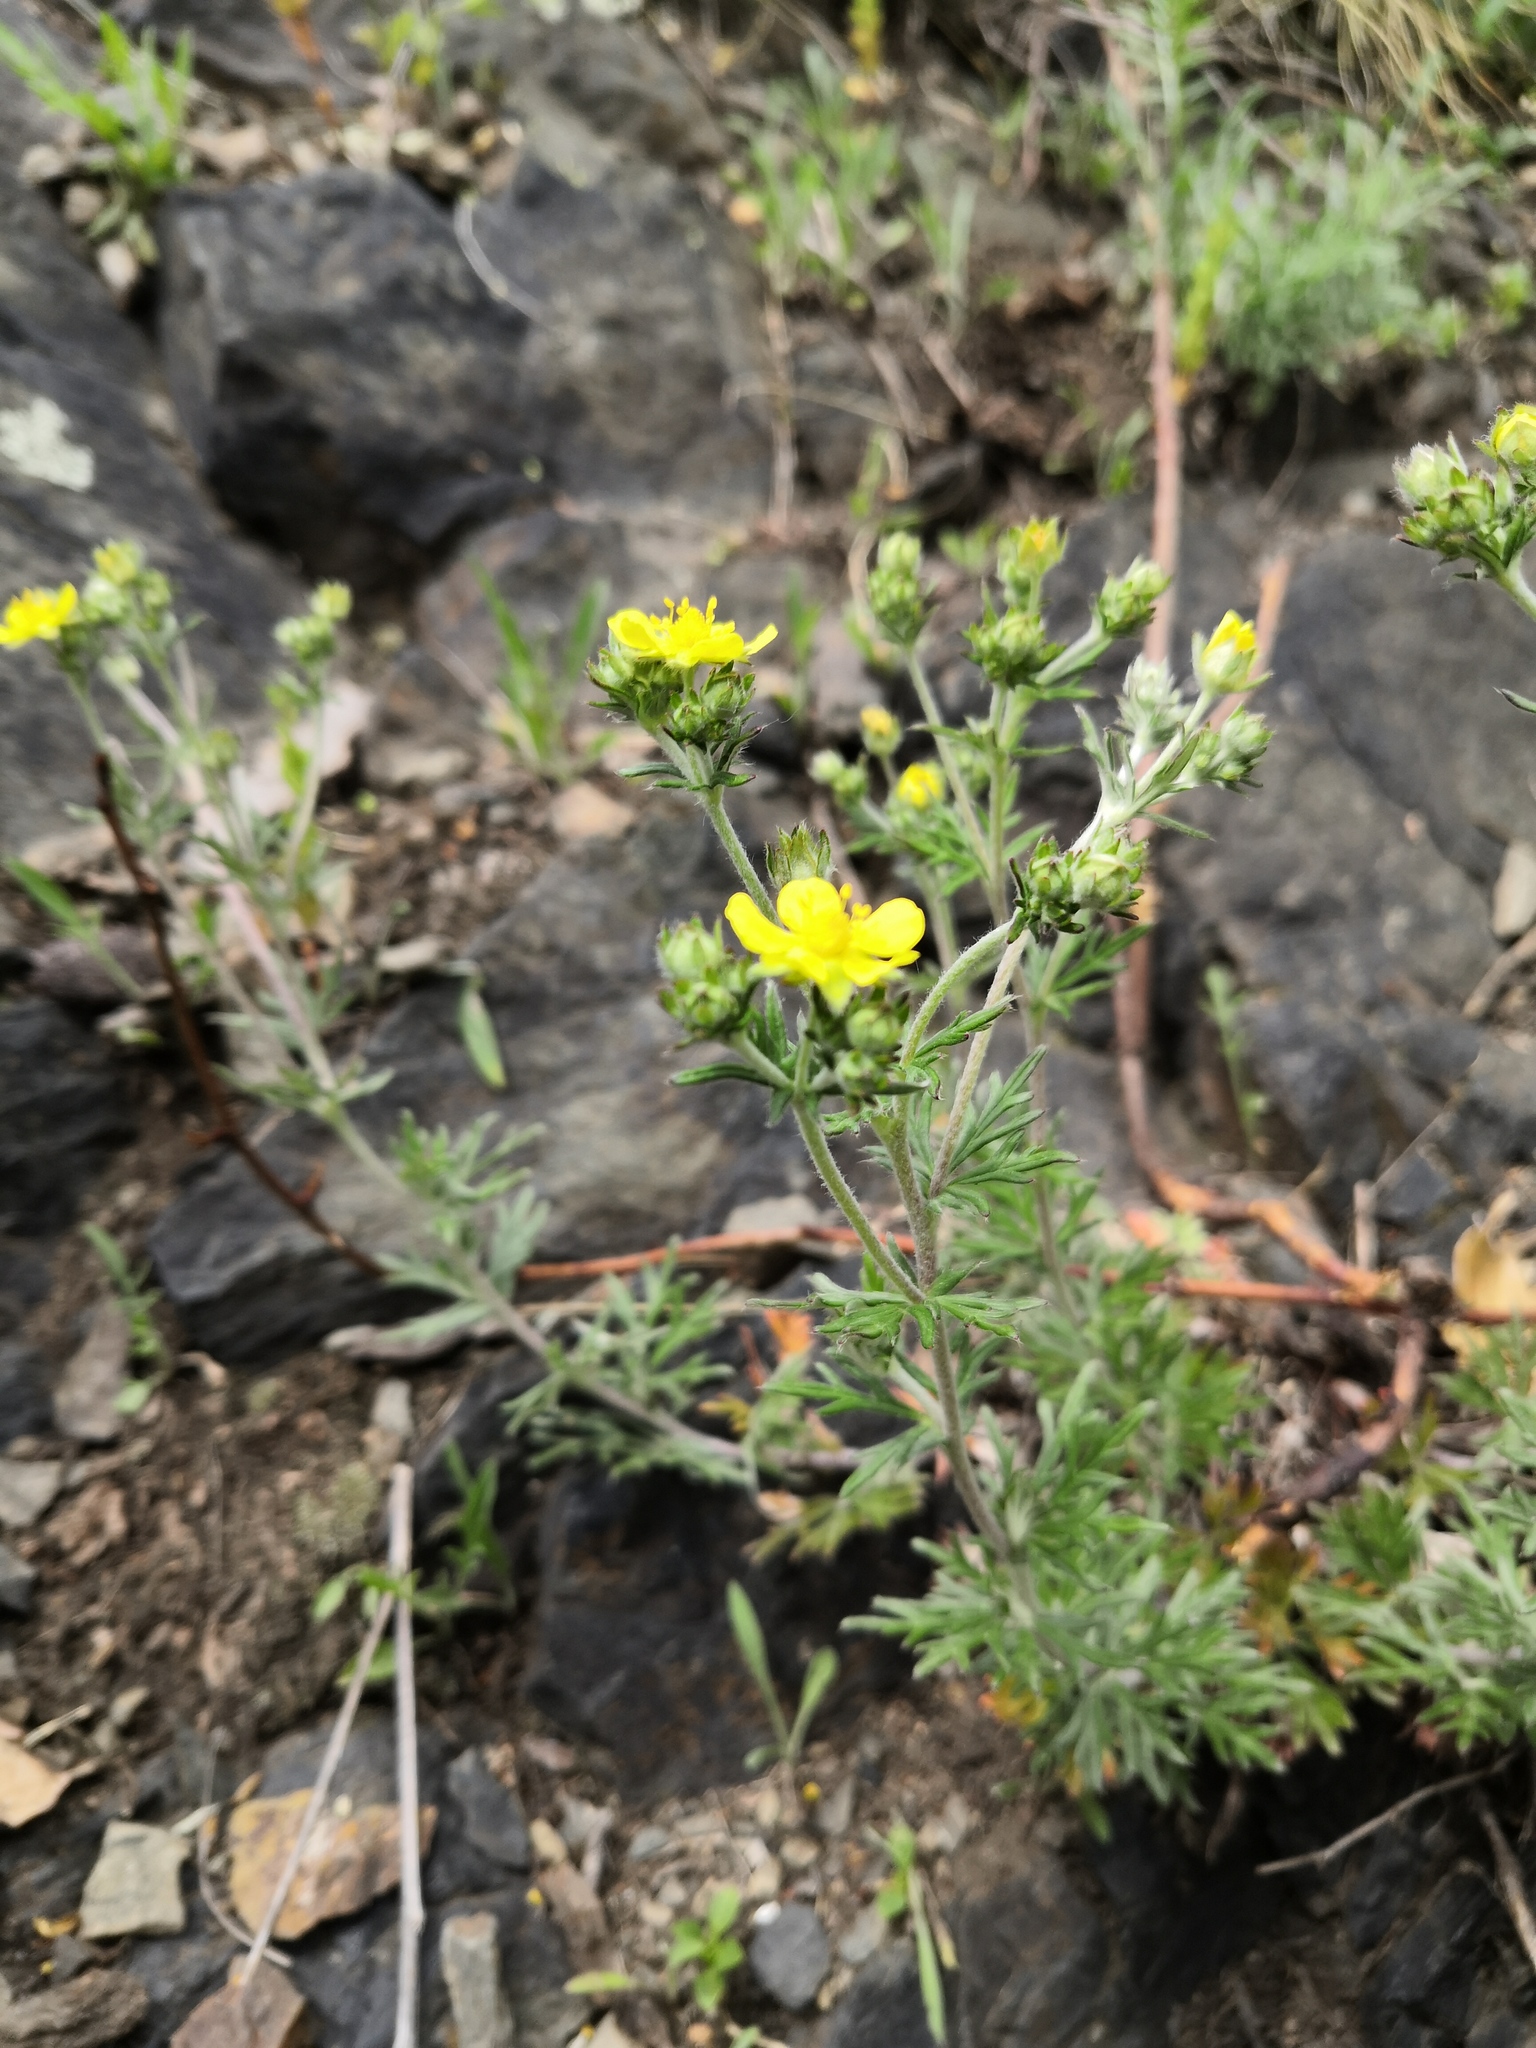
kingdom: Plantae
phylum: Tracheophyta
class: Magnoliopsida
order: Rosales
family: Rosaceae
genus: Potentilla
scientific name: Potentilla argentea
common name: Hoary cinquefoil
